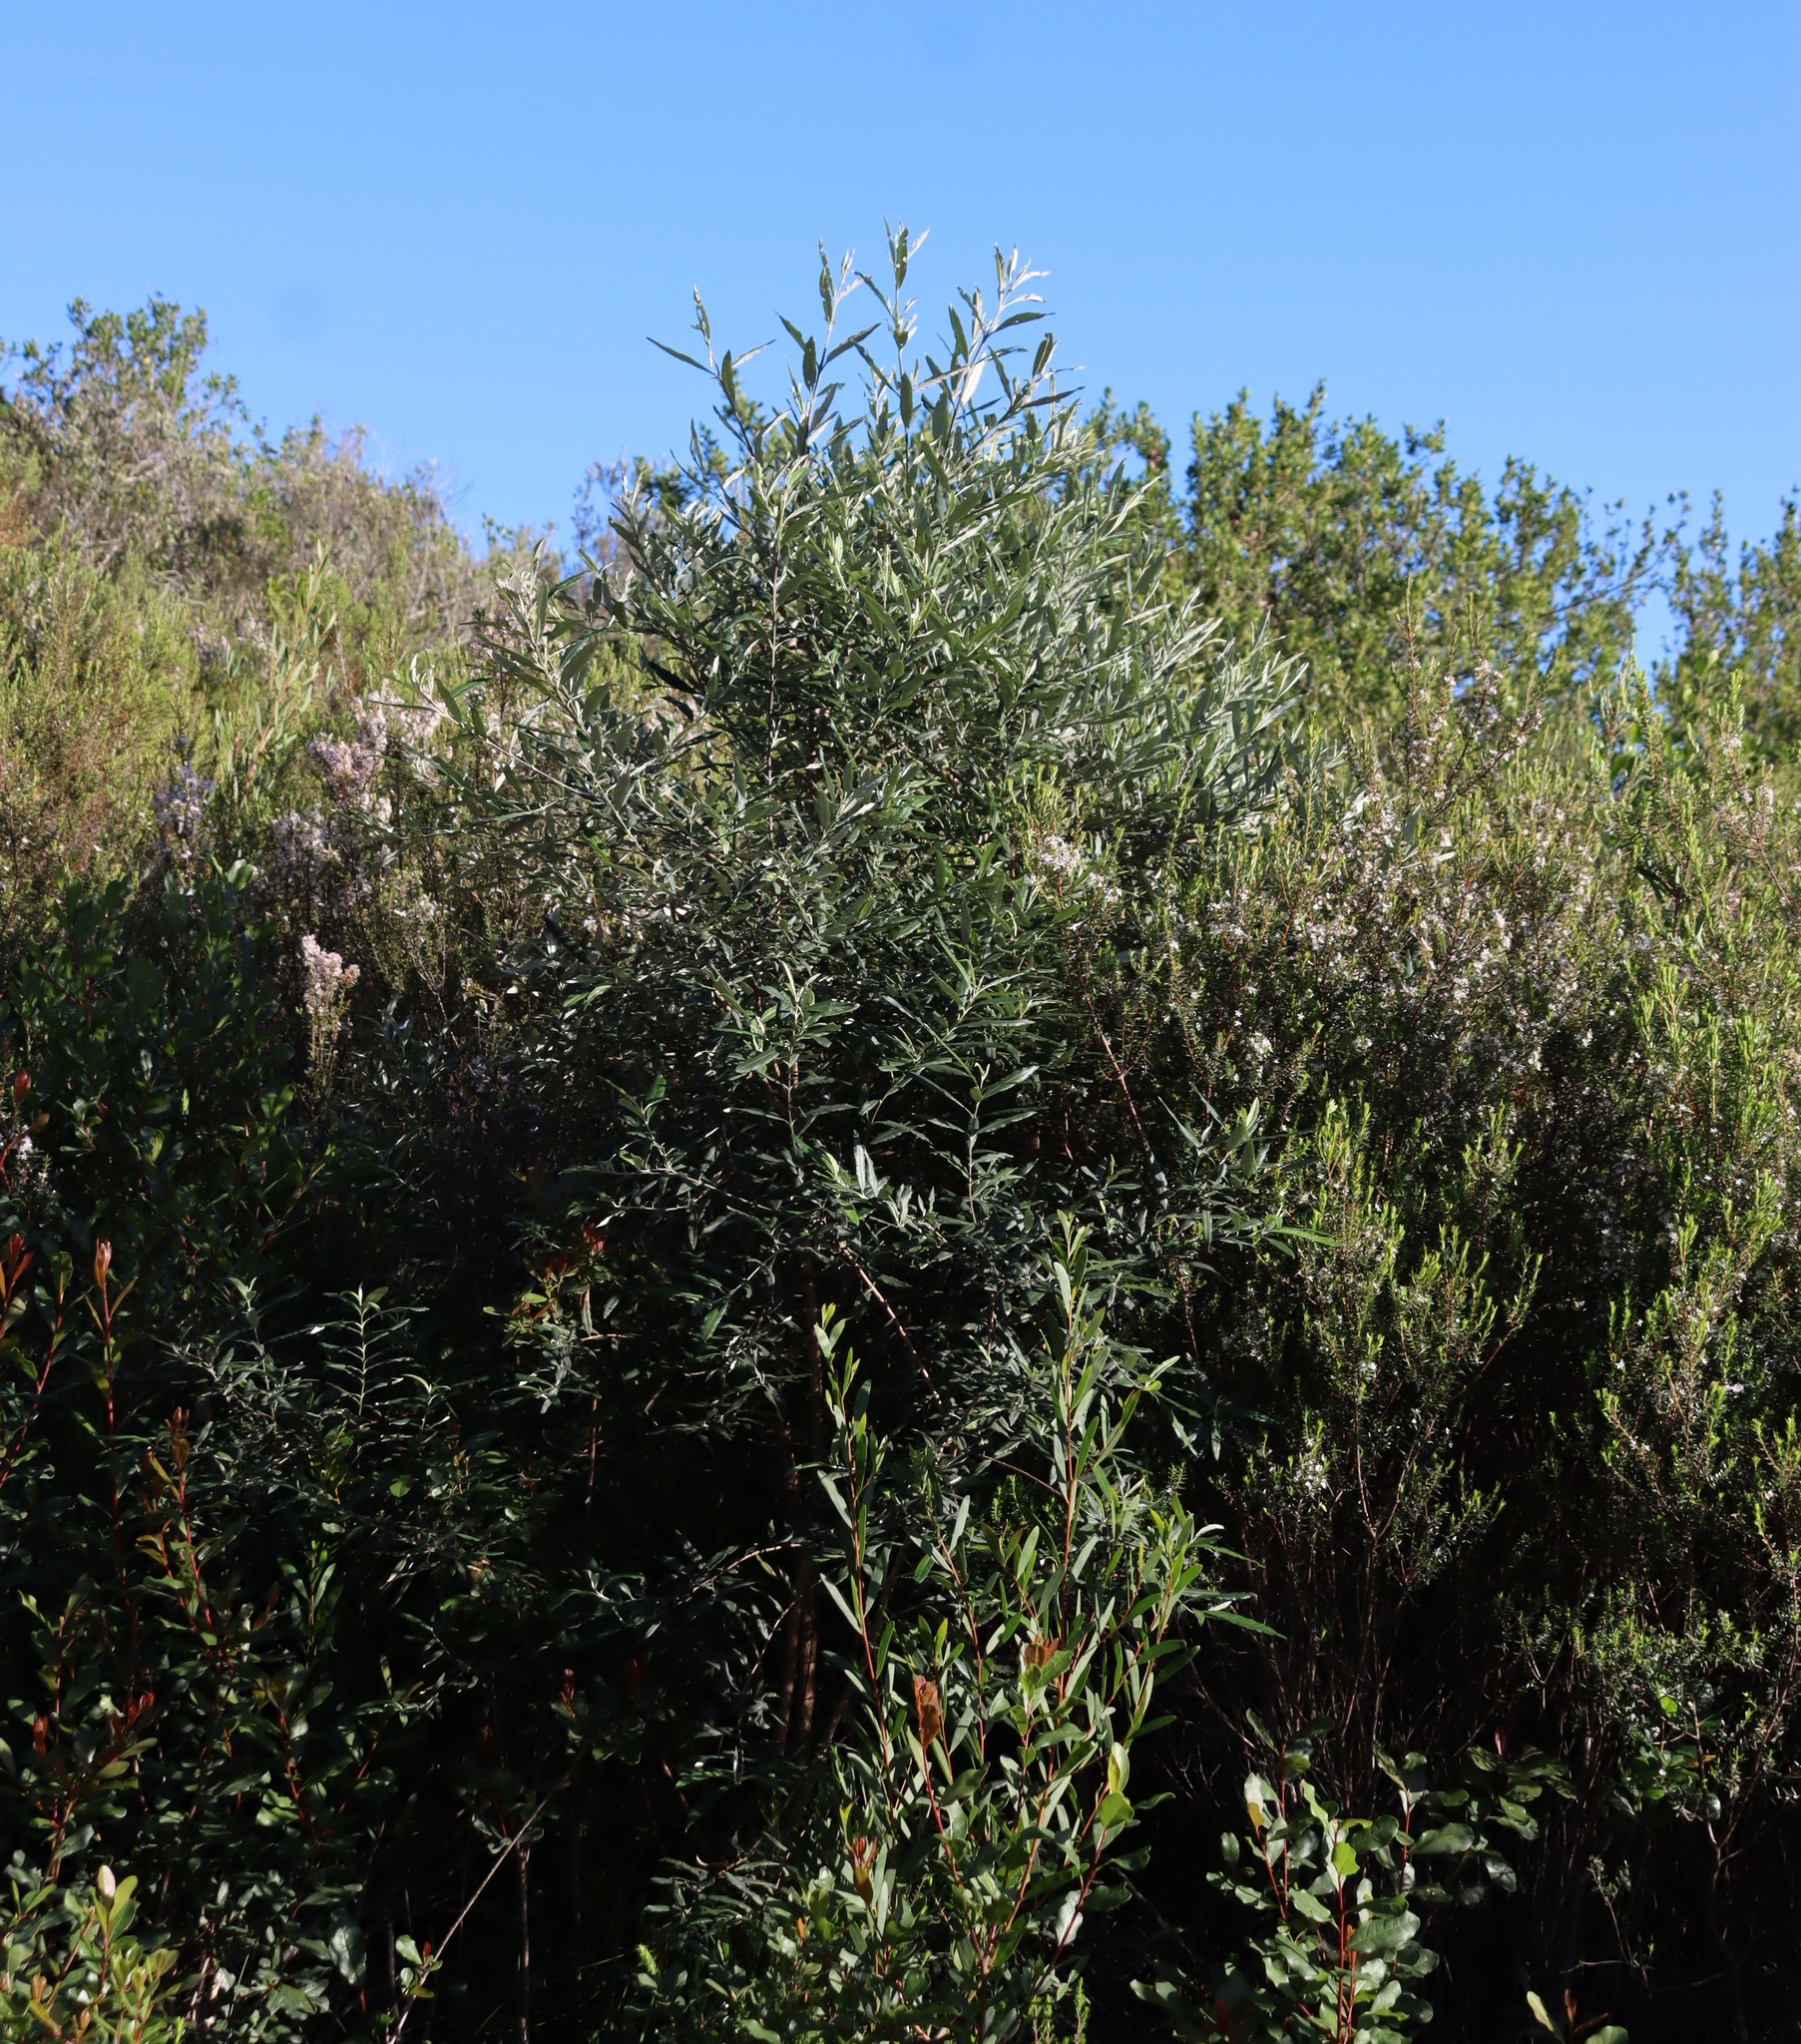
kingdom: Plantae
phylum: Tracheophyta
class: Magnoliopsida
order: Asterales
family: Asteraceae
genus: Tarchonanthus
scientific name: Tarchonanthus littoralis
